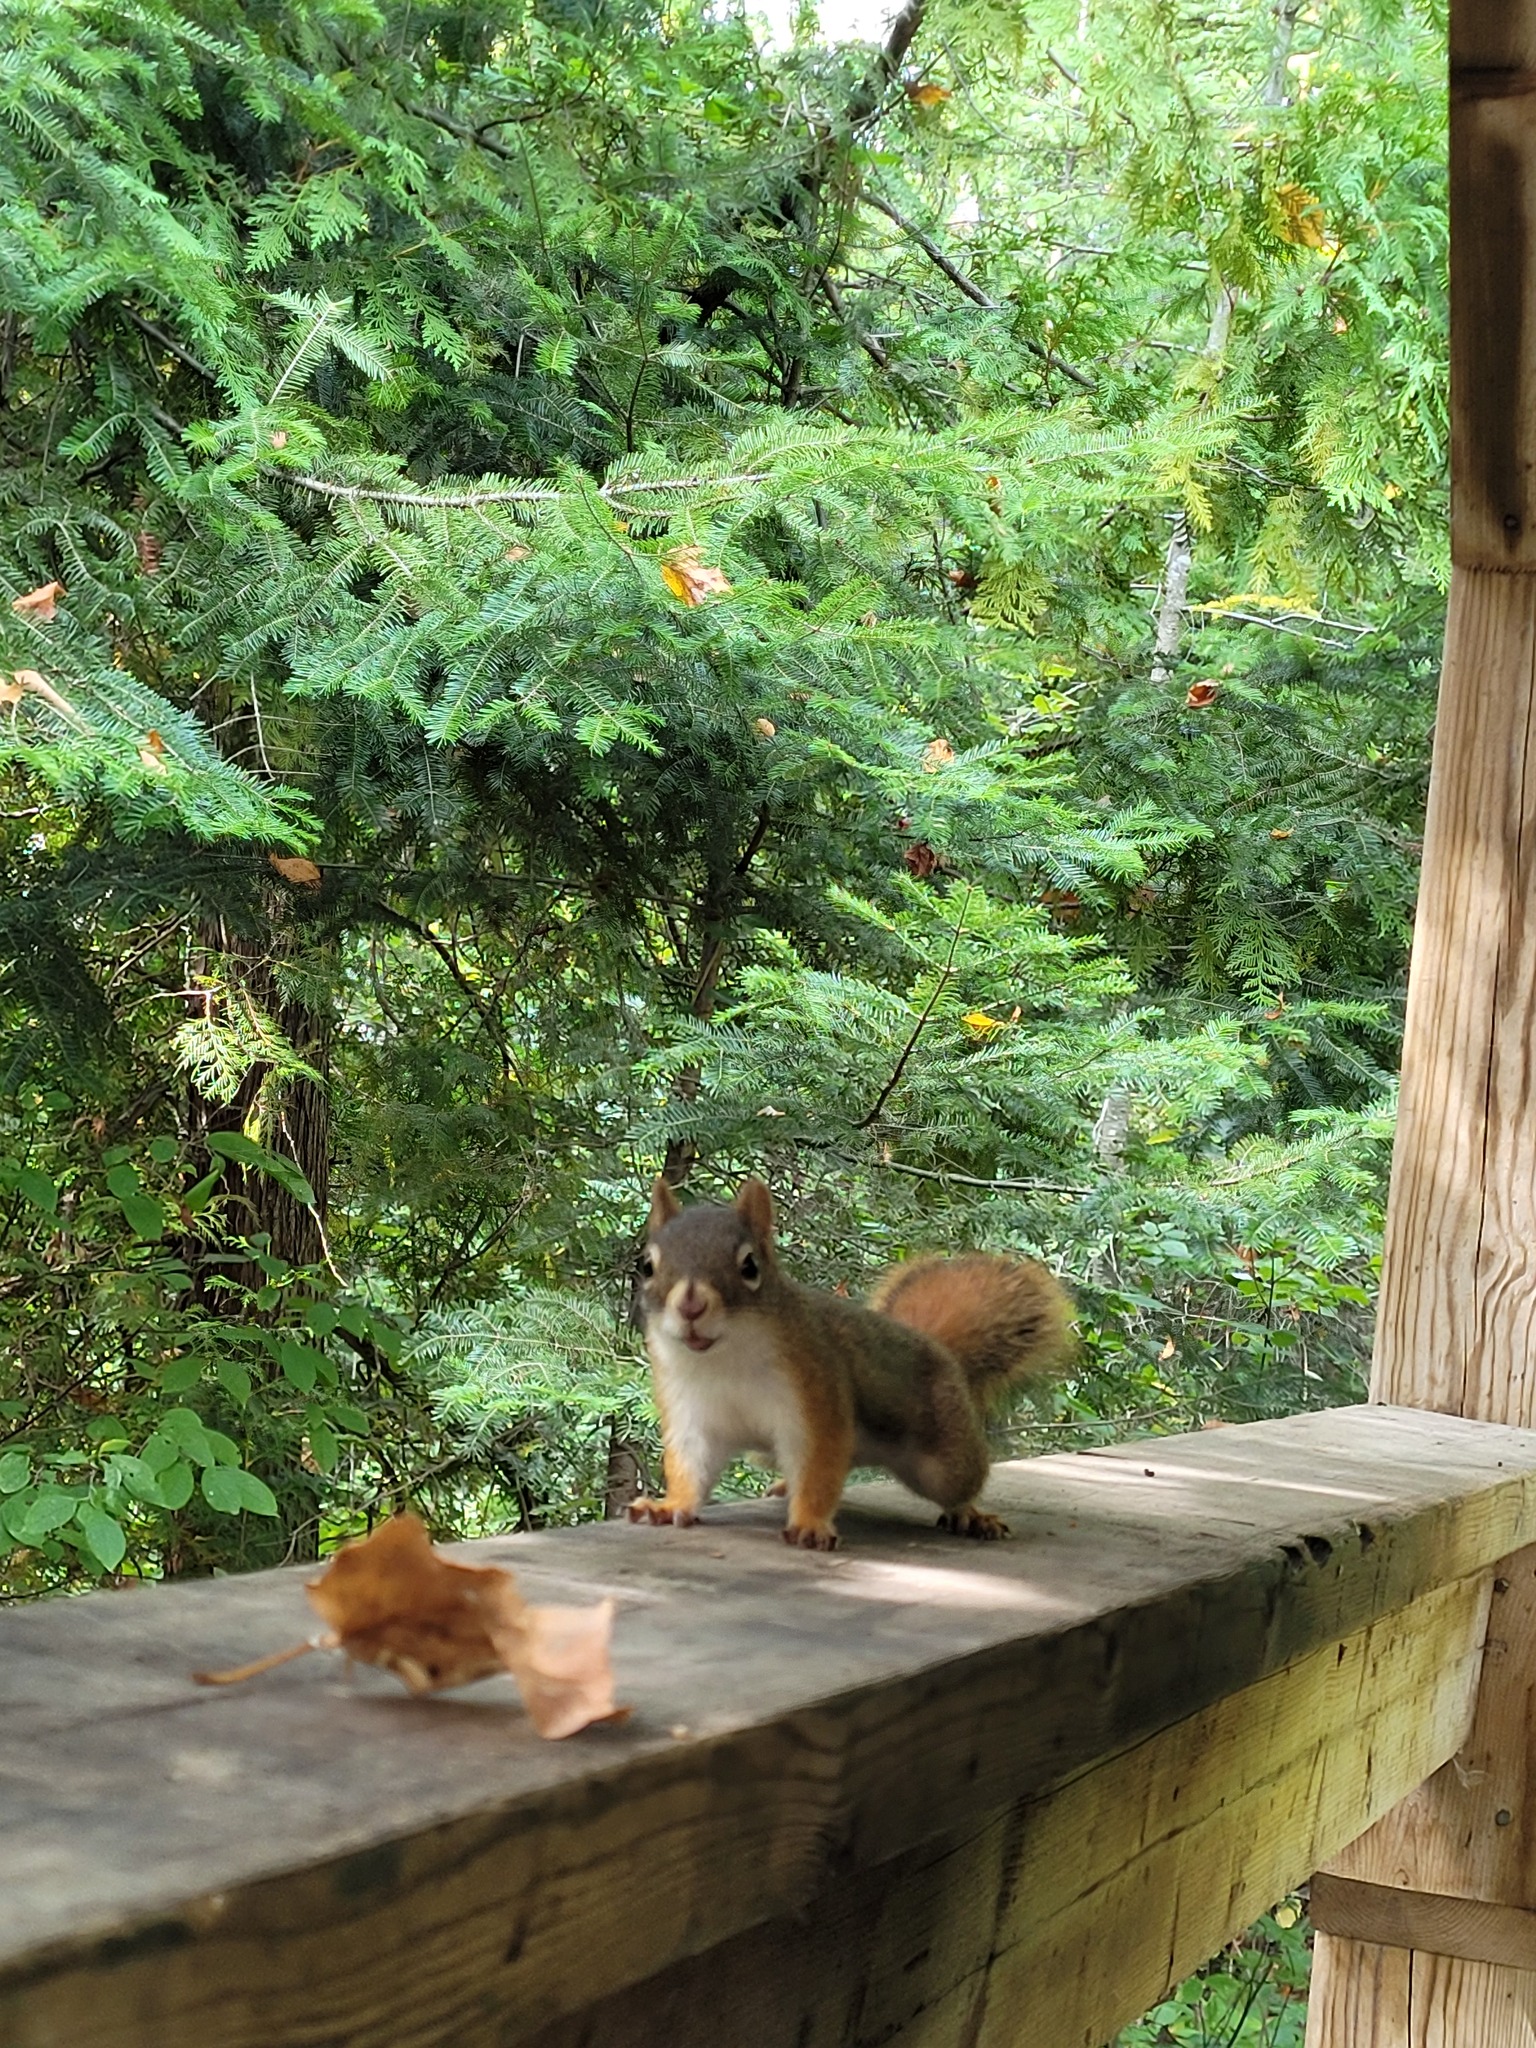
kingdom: Animalia
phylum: Chordata
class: Mammalia
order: Rodentia
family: Sciuridae
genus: Tamiasciurus
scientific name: Tamiasciurus hudsonicus
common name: Red squirrel
